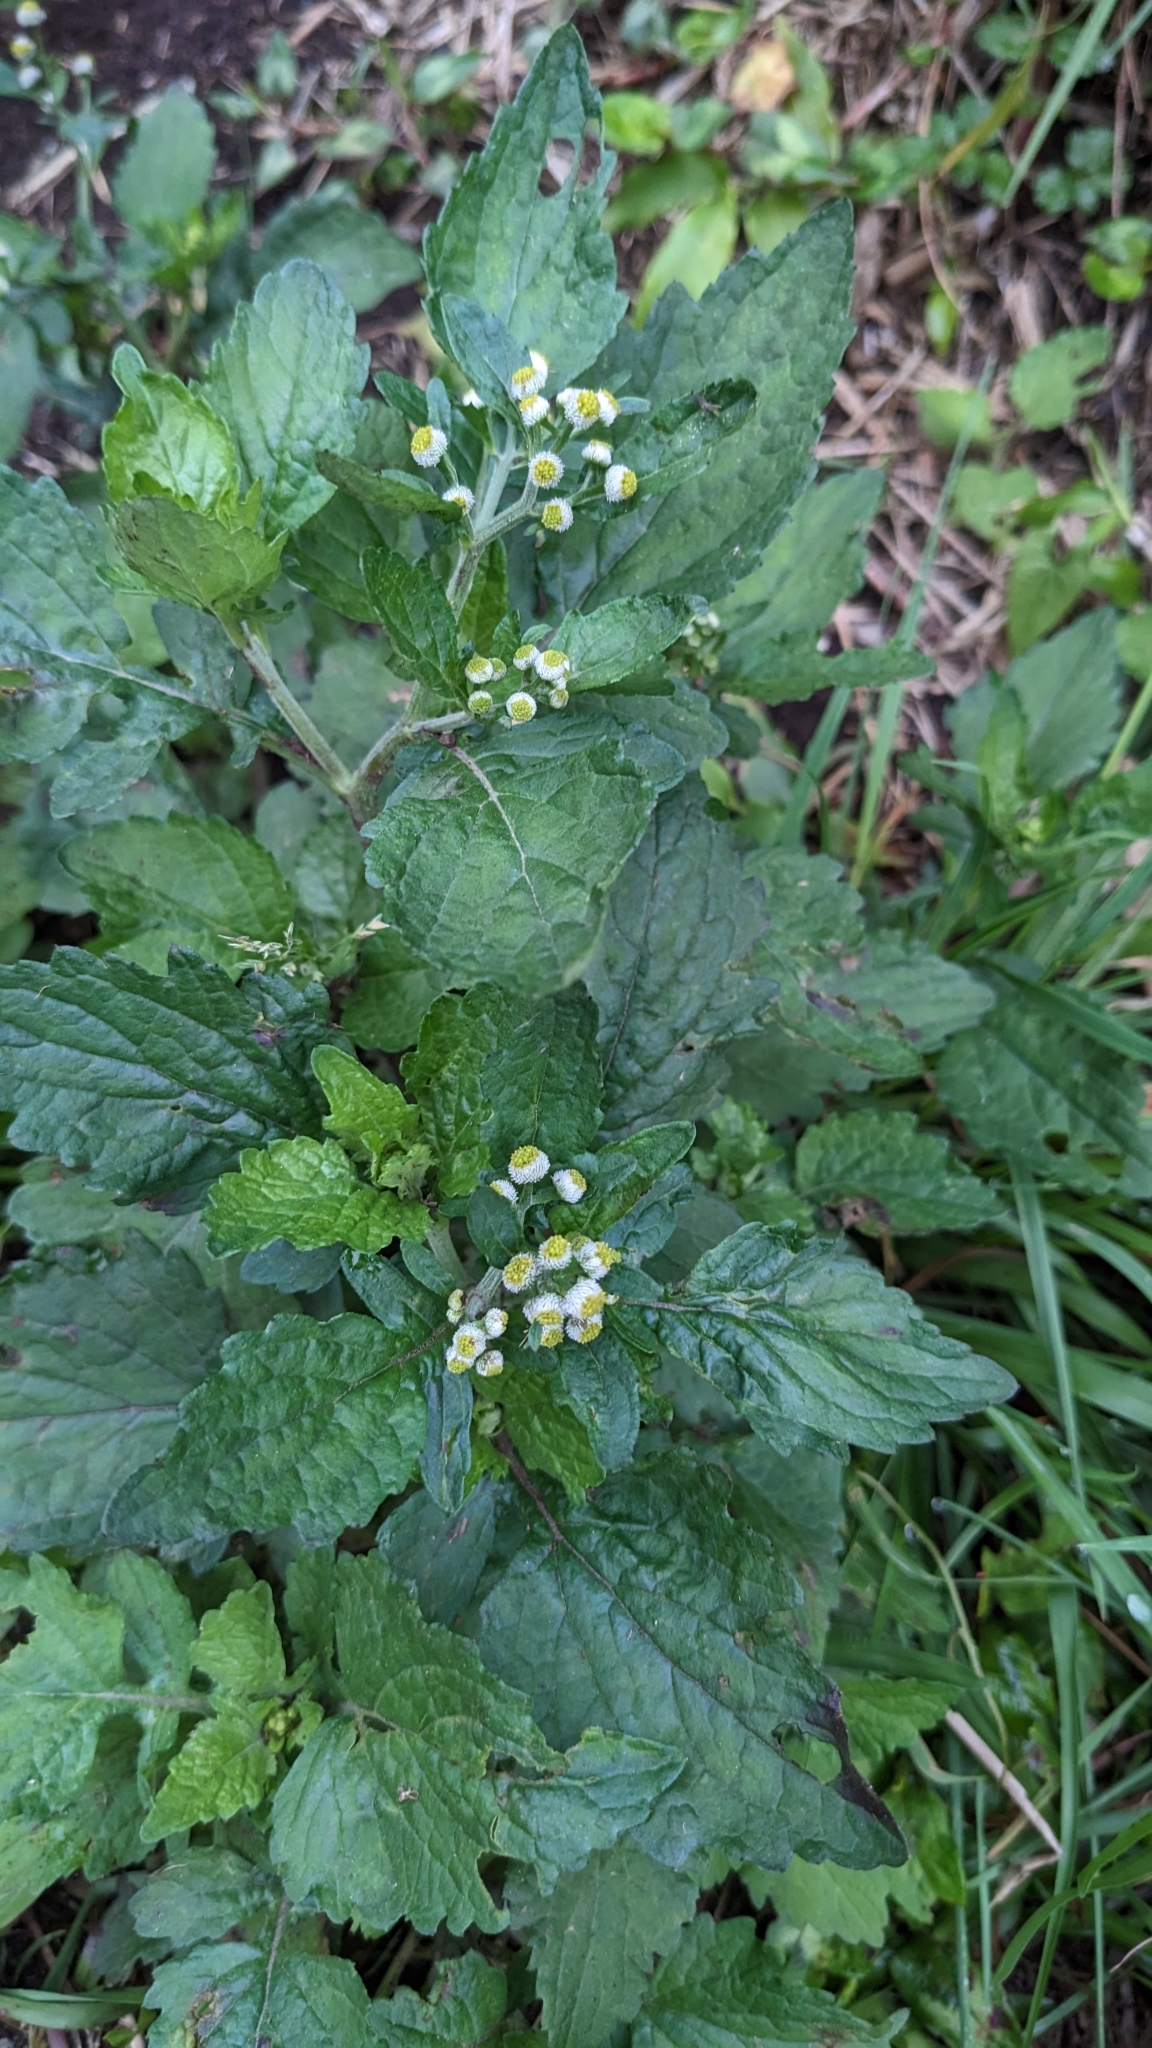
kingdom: Plantae
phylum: Tracheophyta
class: Magnoliopsida
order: Asterales
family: Asteraceae
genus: Dichrocephala
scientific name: Dichrocephala integrifolia
